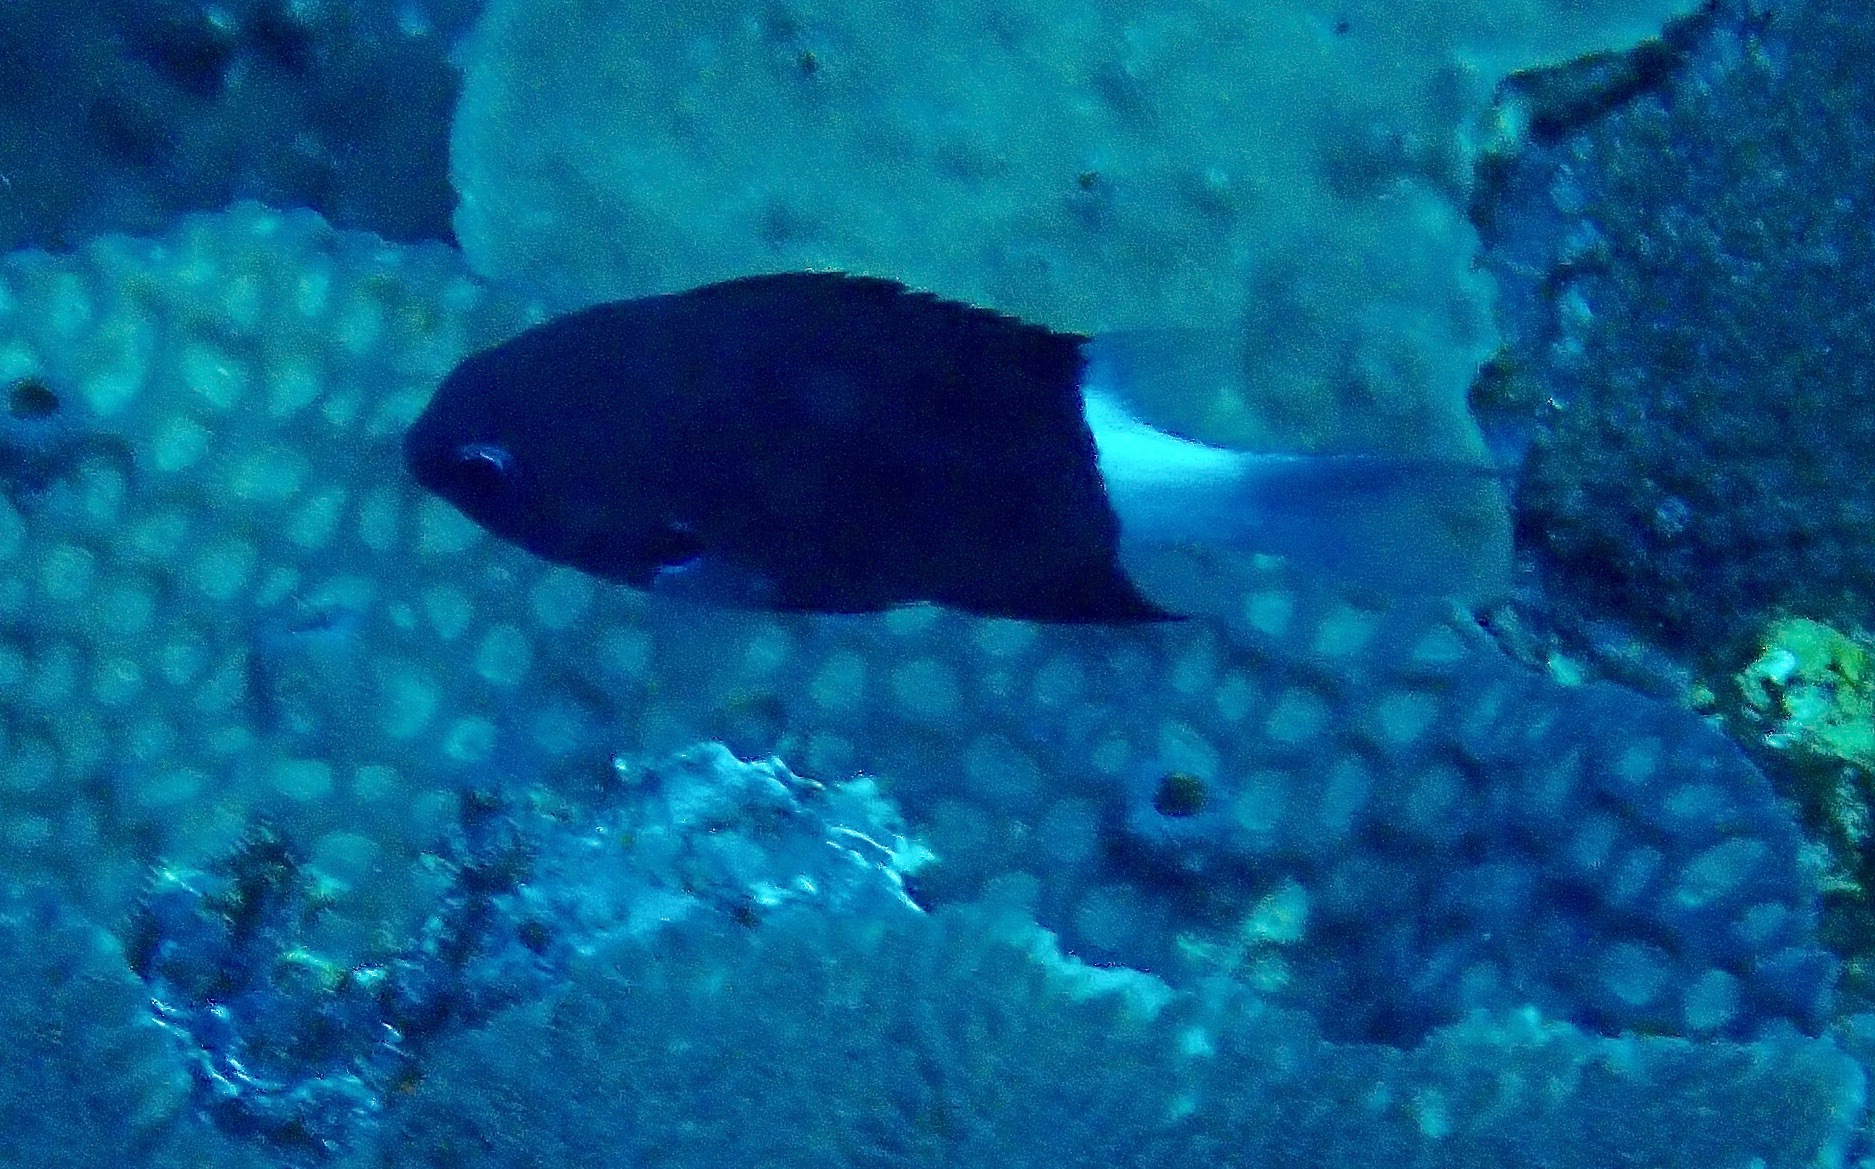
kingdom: Animalia
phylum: Chordata
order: Perciformes
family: Pomacentridae
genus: Pycnochromis
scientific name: Pycnochromis margaritifer
